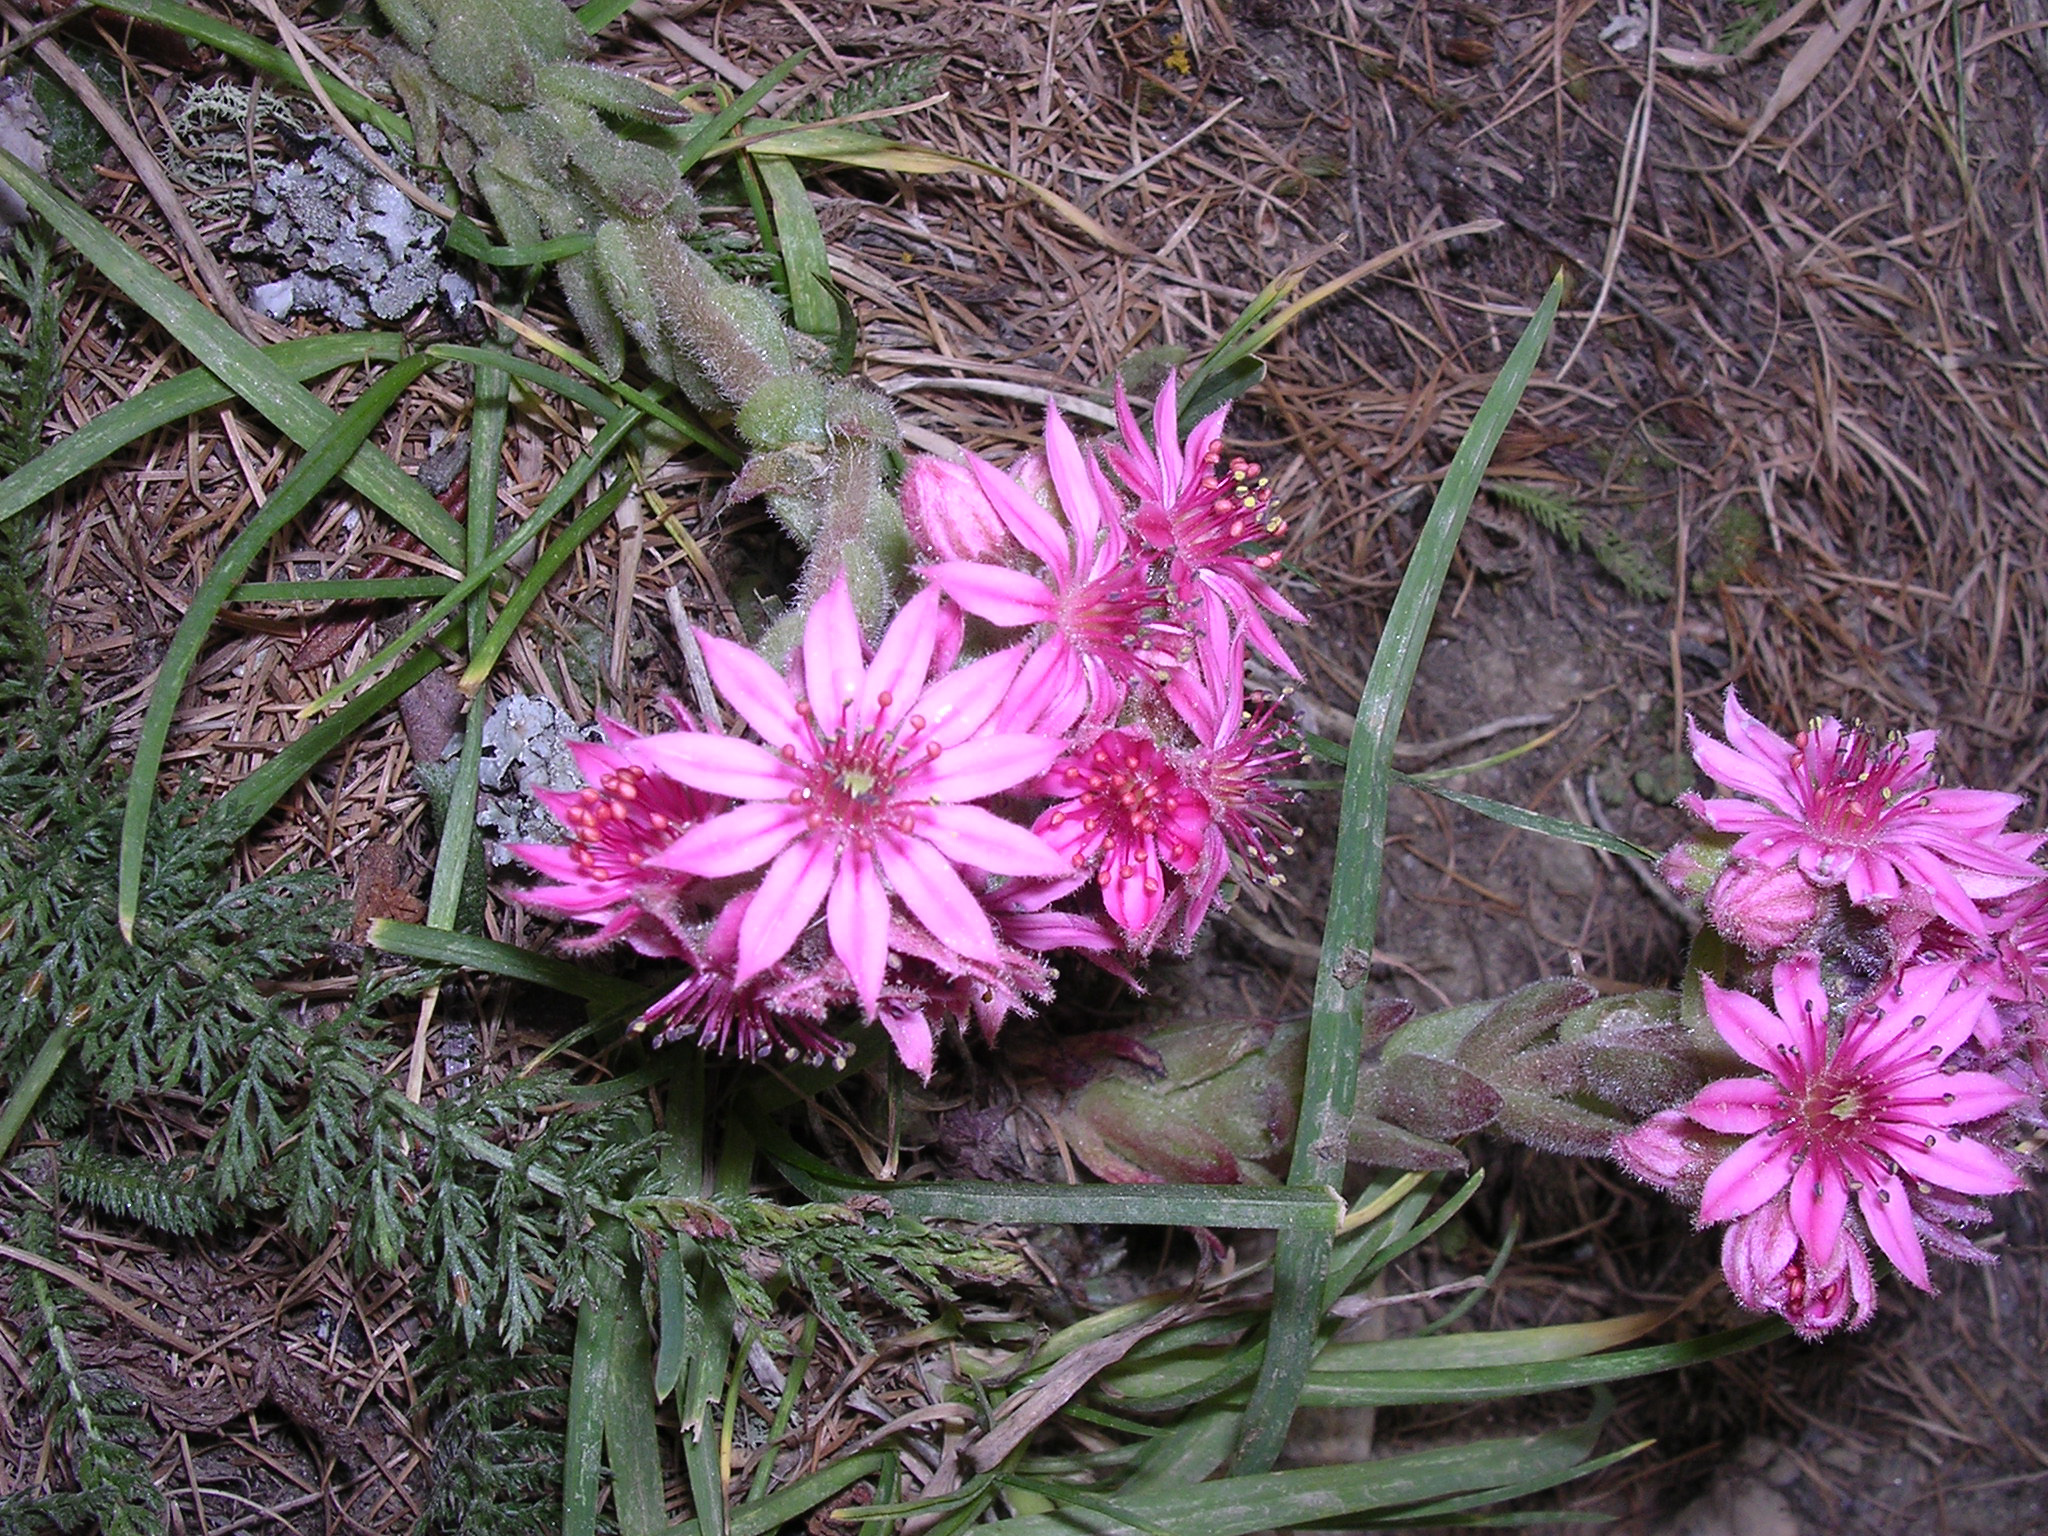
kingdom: Plantae
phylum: Tracheophyta
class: Magnoliopsida
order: Saxifragales
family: Crassulaceae
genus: Sempervivum
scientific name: Sempervivum arachnoideum
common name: Cobweb house-leek
